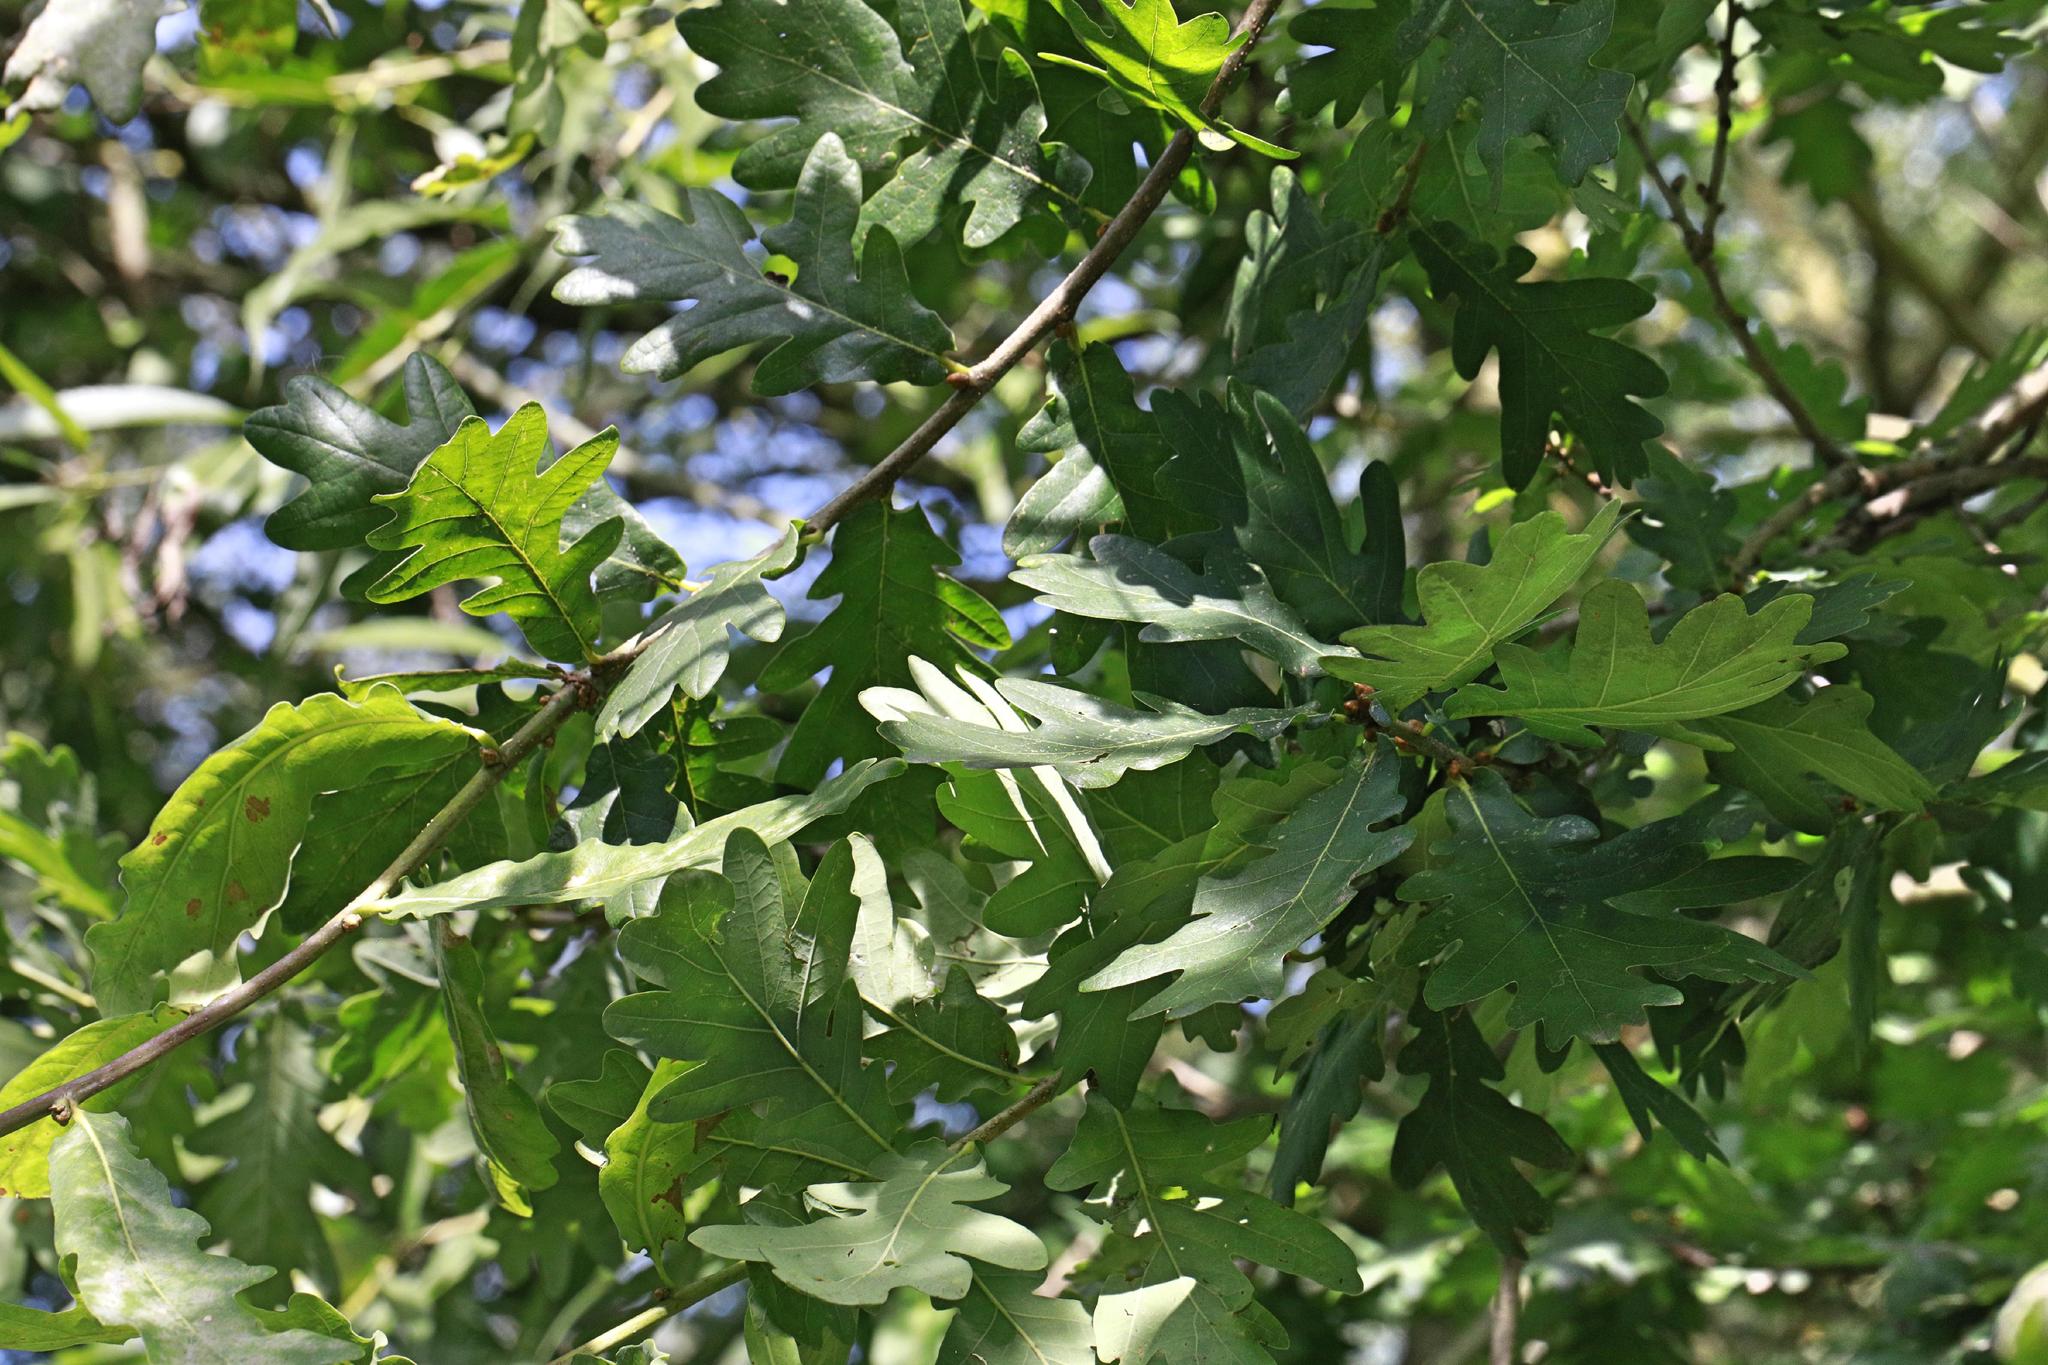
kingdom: Plantae
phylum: Tracheophyta
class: Magnoliopsida
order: Fagales
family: Fagaceae
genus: Quercus
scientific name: Quercus robur
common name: Pedunculate oak
